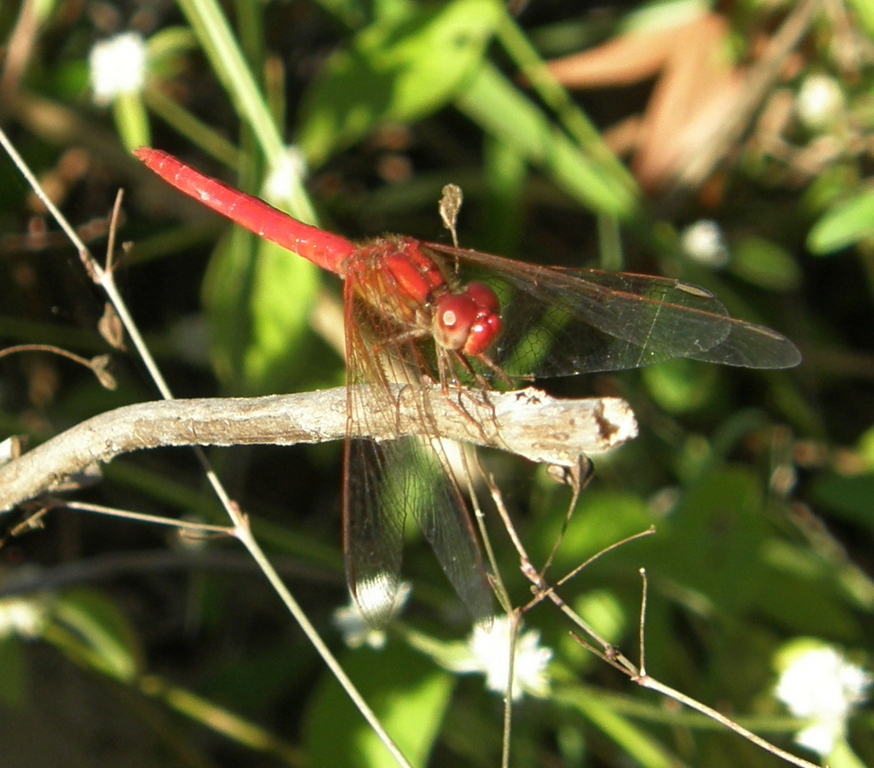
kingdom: Animalia
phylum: Arthropoda
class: Insecta
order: Odonata
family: Libellulidae
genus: Diplacodes
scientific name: Diplacodes haematodes
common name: Scarlet percher
